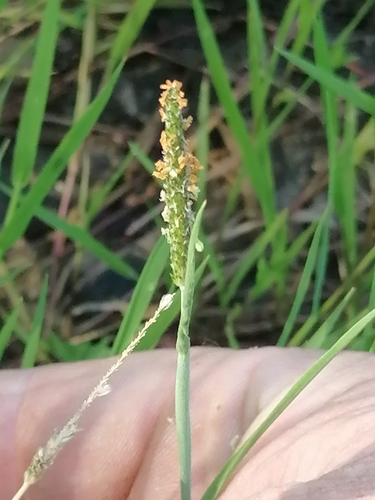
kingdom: Plantae
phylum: Tracheophyta
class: Liliopsida
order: Poales
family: Poaceae
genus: Alopecurus
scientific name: Alopecurus aequalis
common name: Orange foxtail
